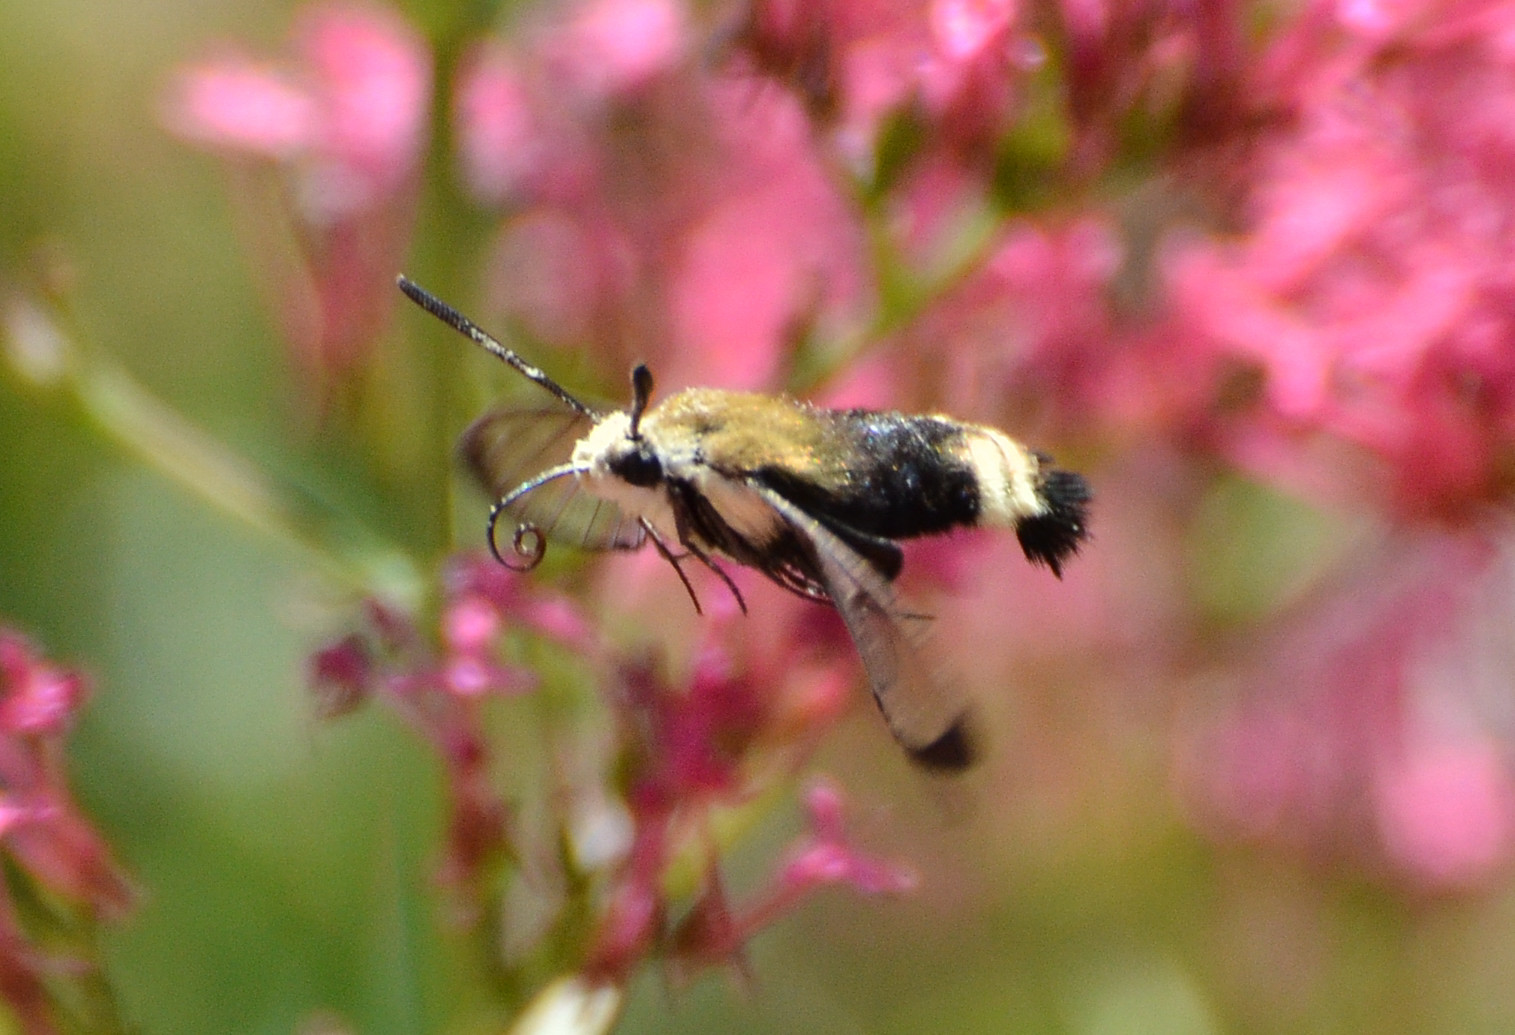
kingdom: Animalia
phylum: Arthropoda
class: Insecta
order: Lepidoptera
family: Sphingidae
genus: Hemaris
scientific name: Hemaris thetis
